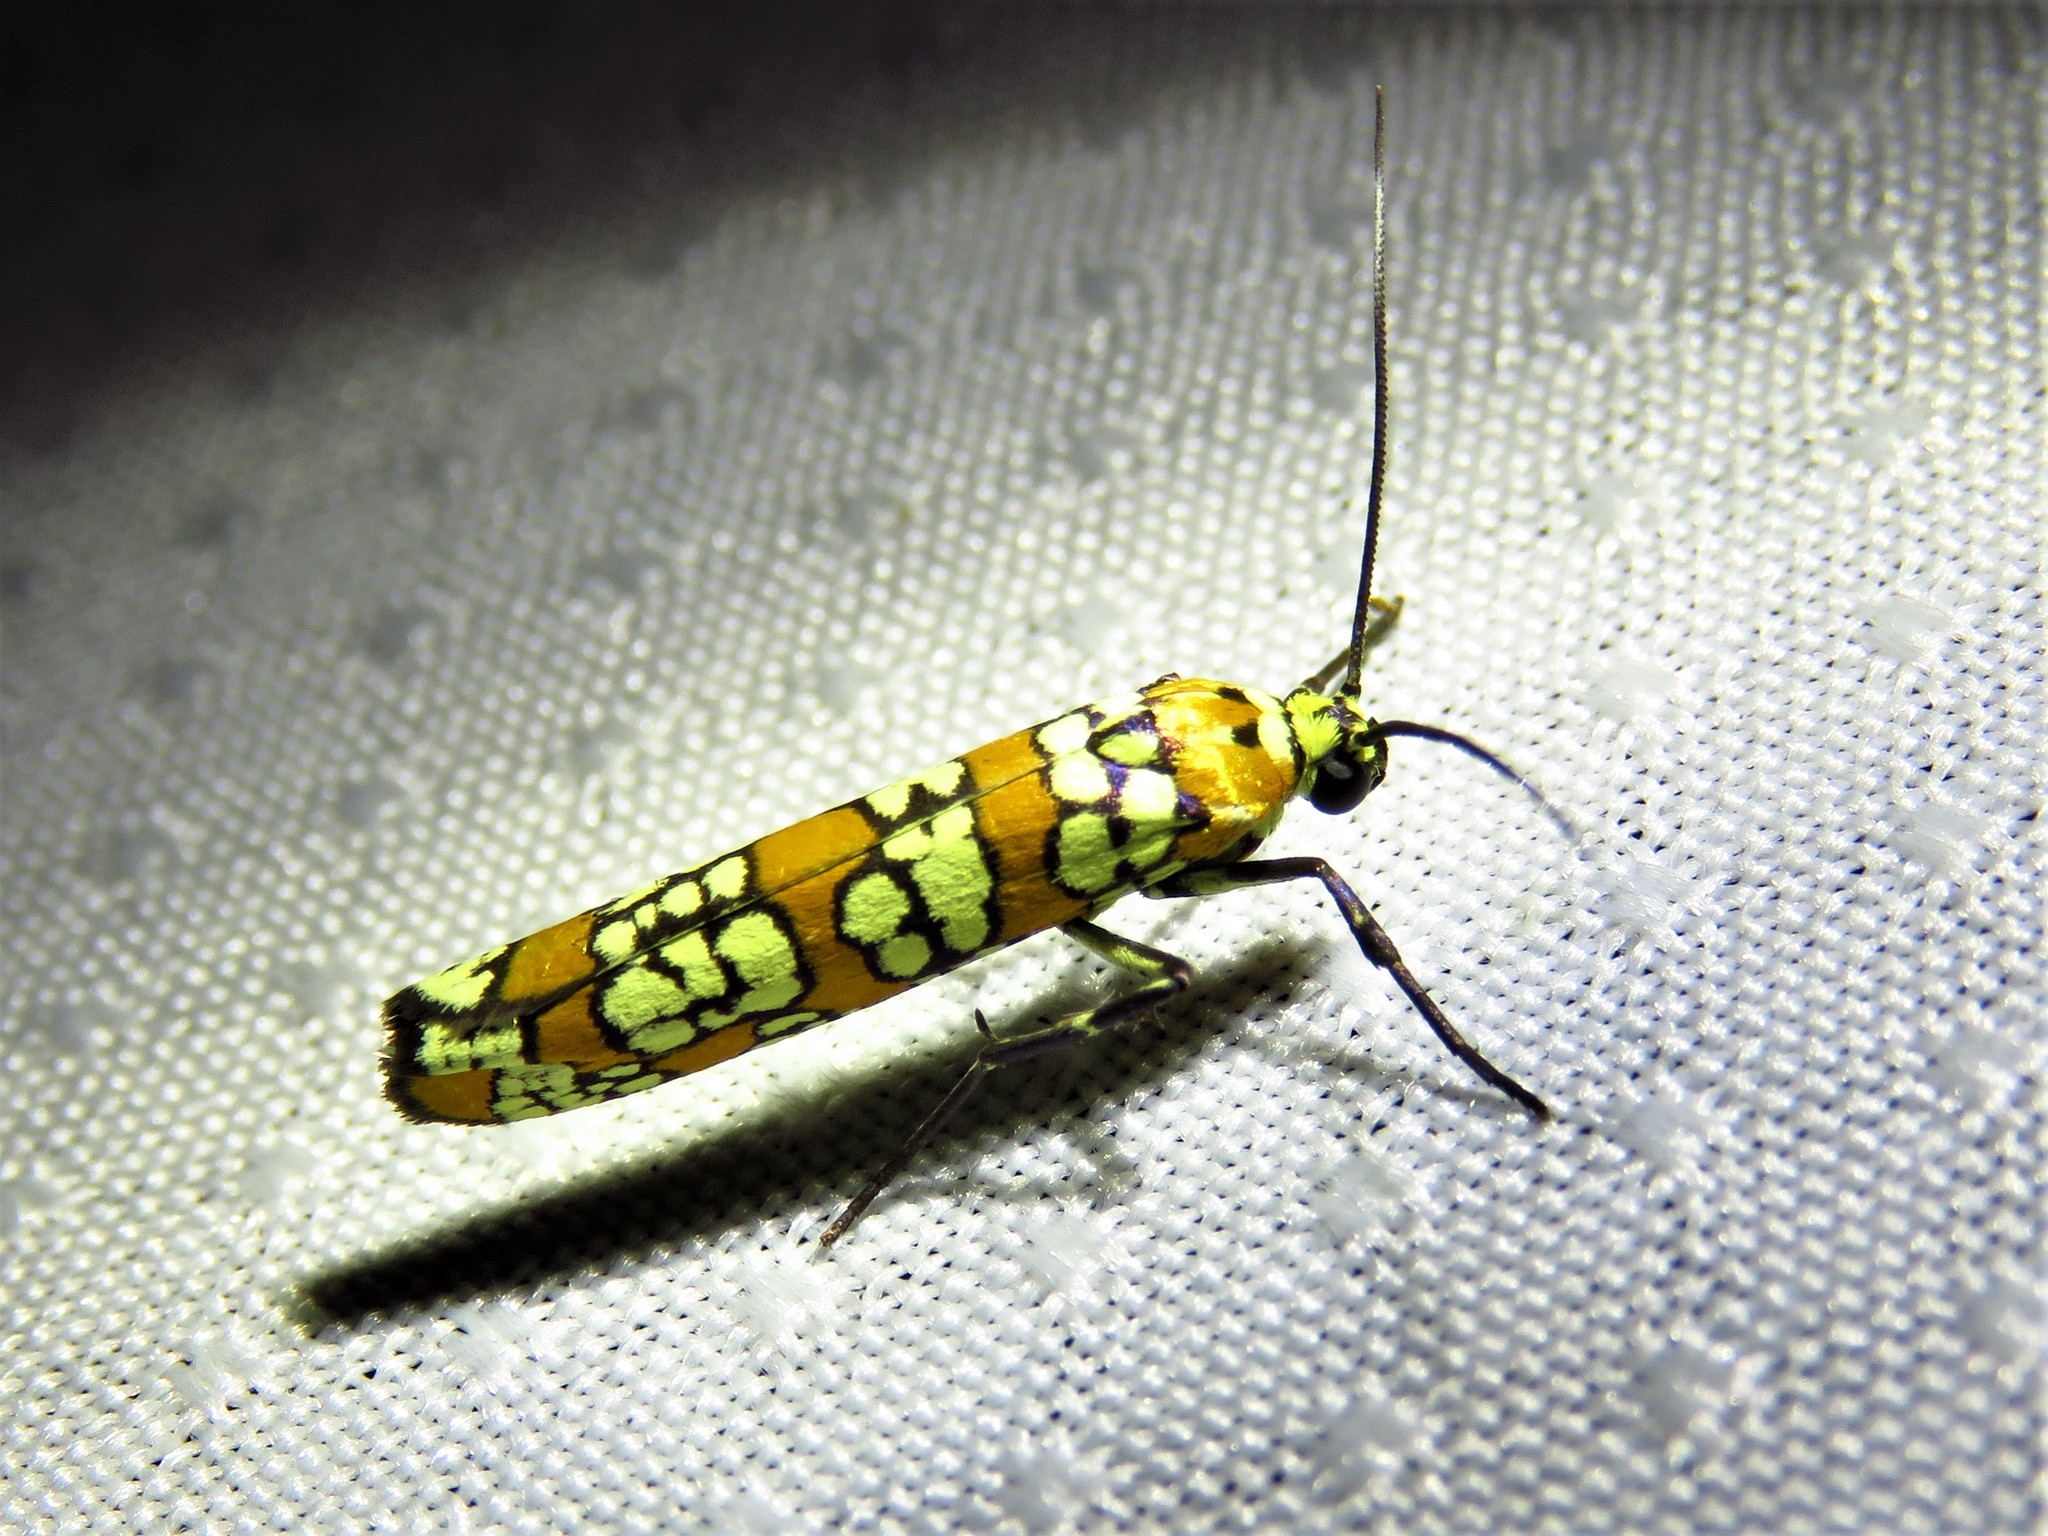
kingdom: Animalia
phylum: Arthropoda
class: Insecta
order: Lepidoptera
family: Attevidae
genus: Atteva
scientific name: Atteva punctella
